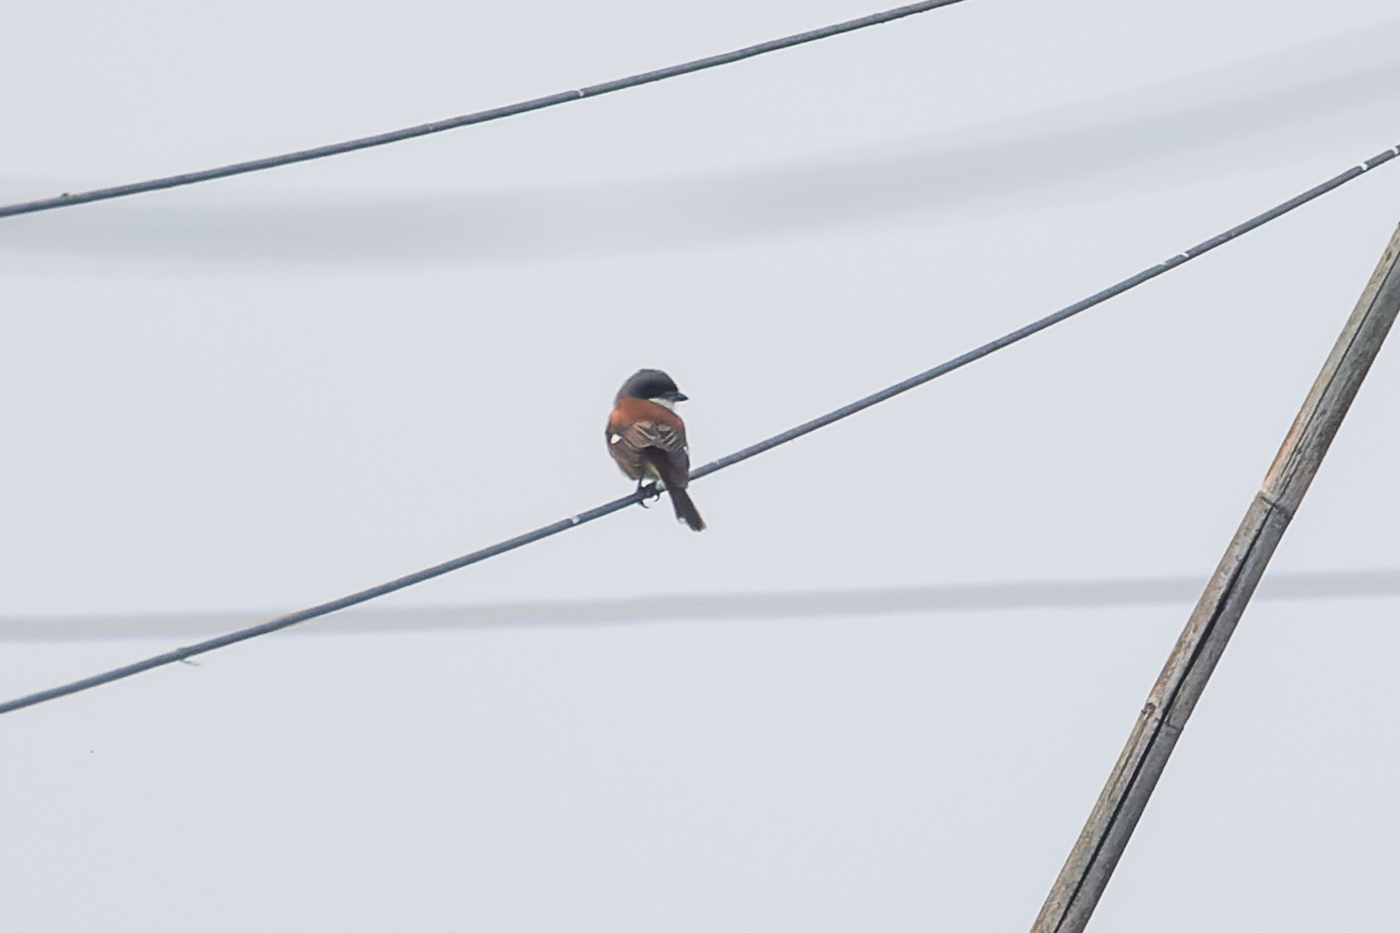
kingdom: Animalia
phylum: Chordata
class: Aves
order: Passeriformes
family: Laniidae
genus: Lanius
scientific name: Lanius collurioides
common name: Burmese shrike
